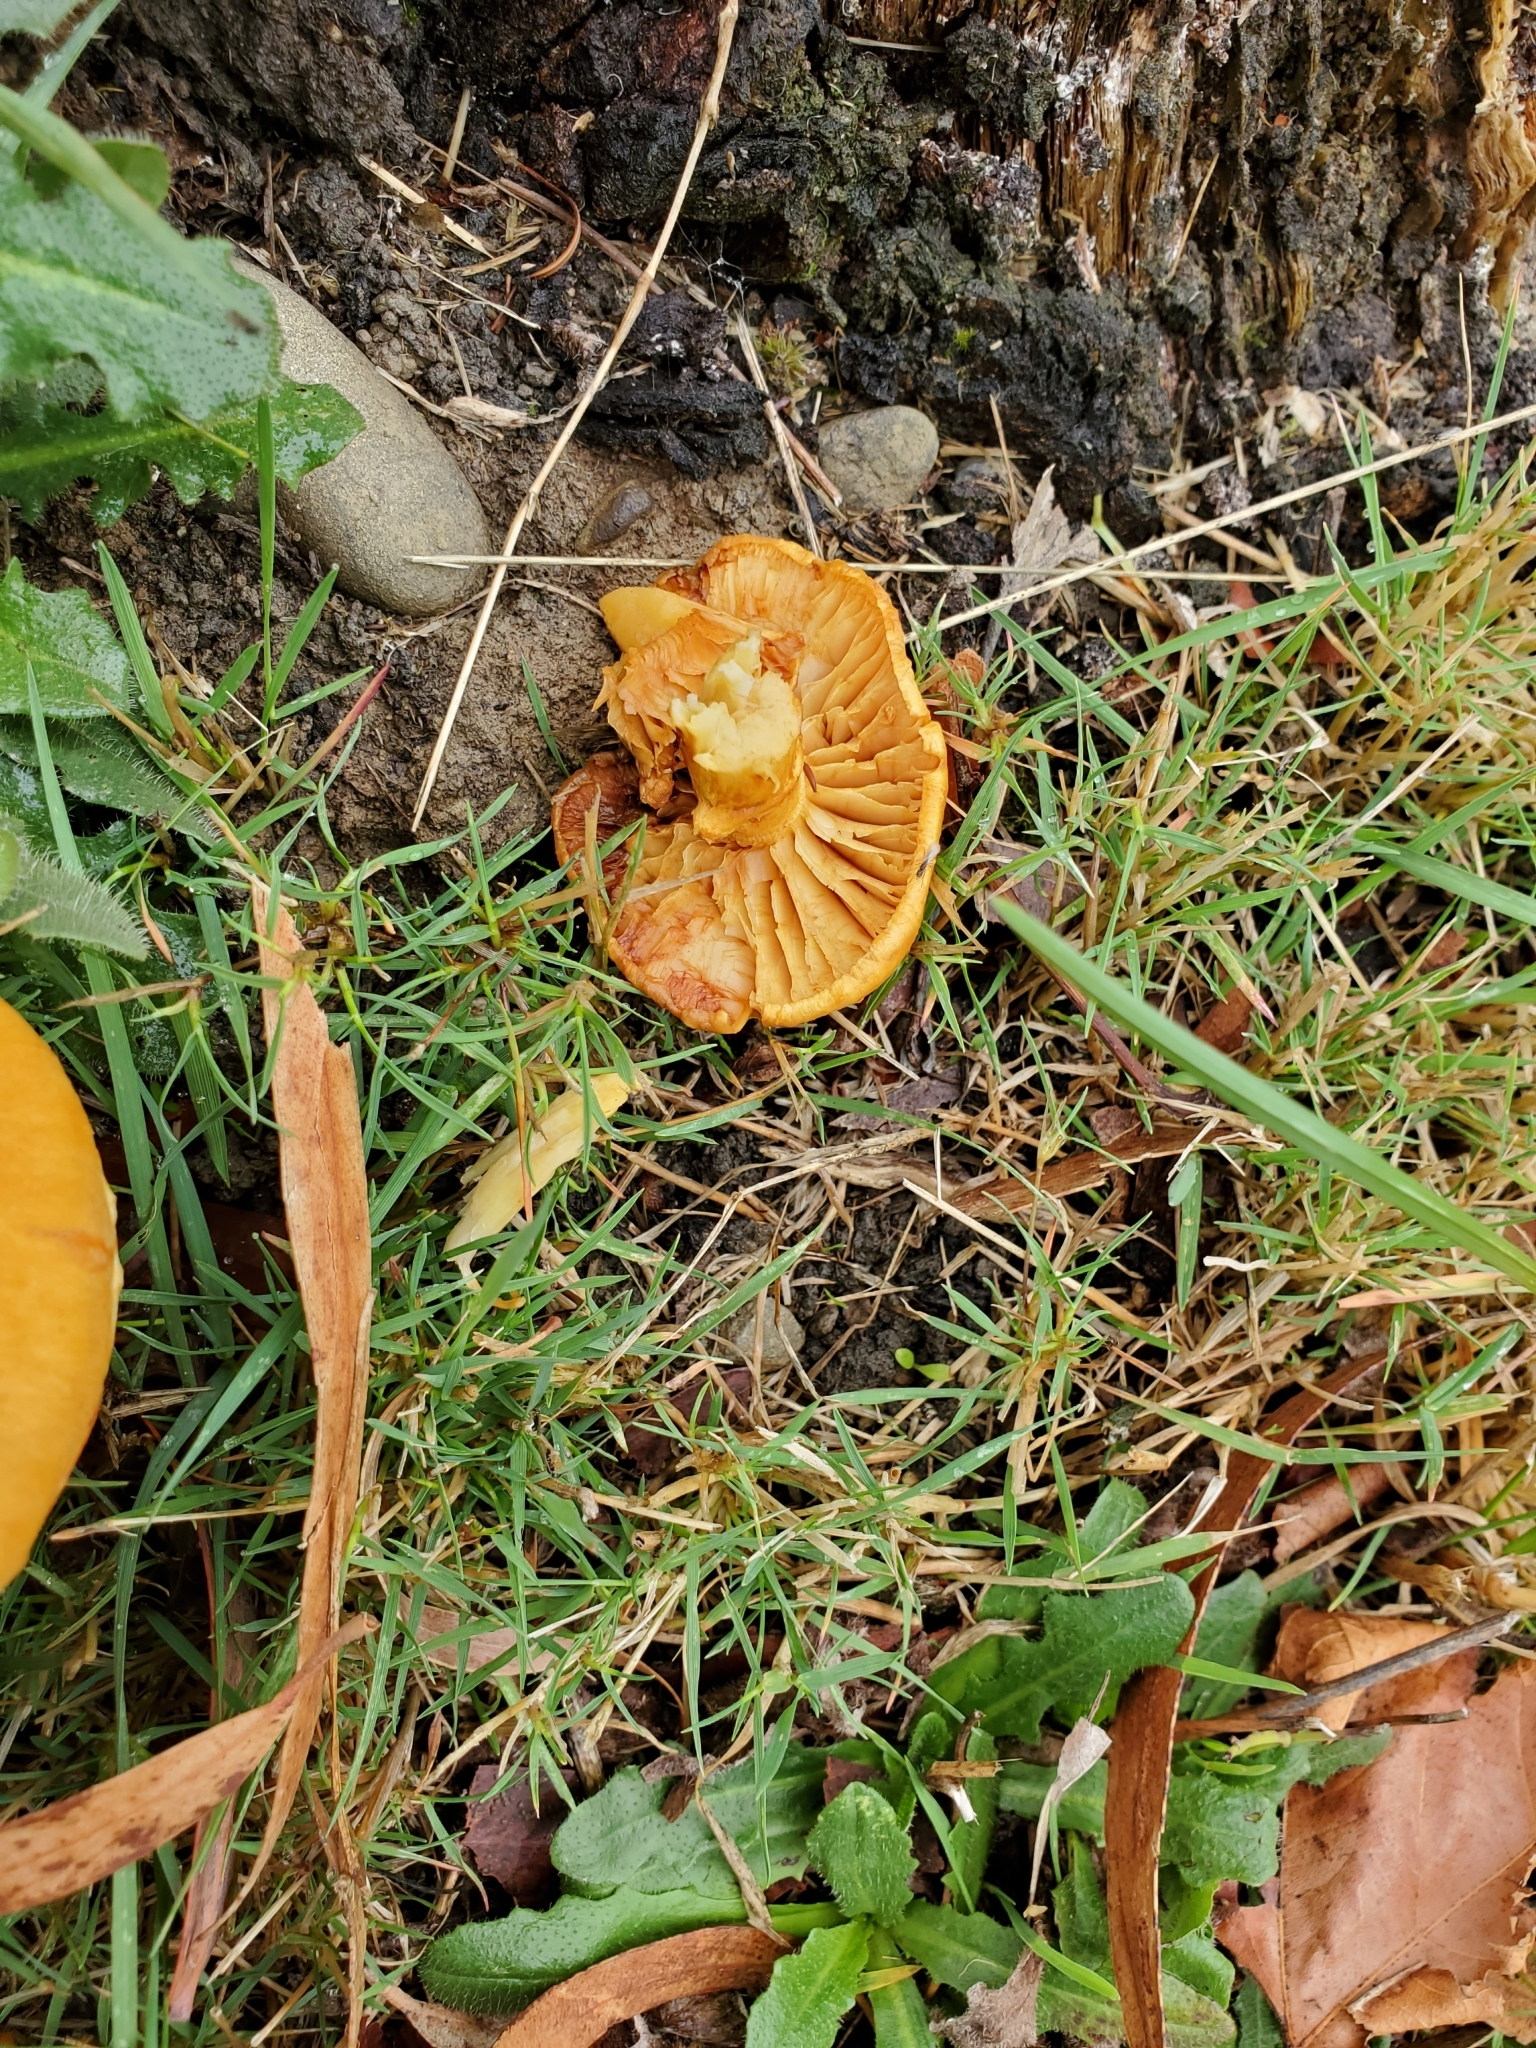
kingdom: Fungi
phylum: Basidiomycota
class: Agaricomycetes
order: Agaricales
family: Hymenogastraceae
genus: Gymnopilus
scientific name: Gymnopilus junonius
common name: Spectacular rustgill
